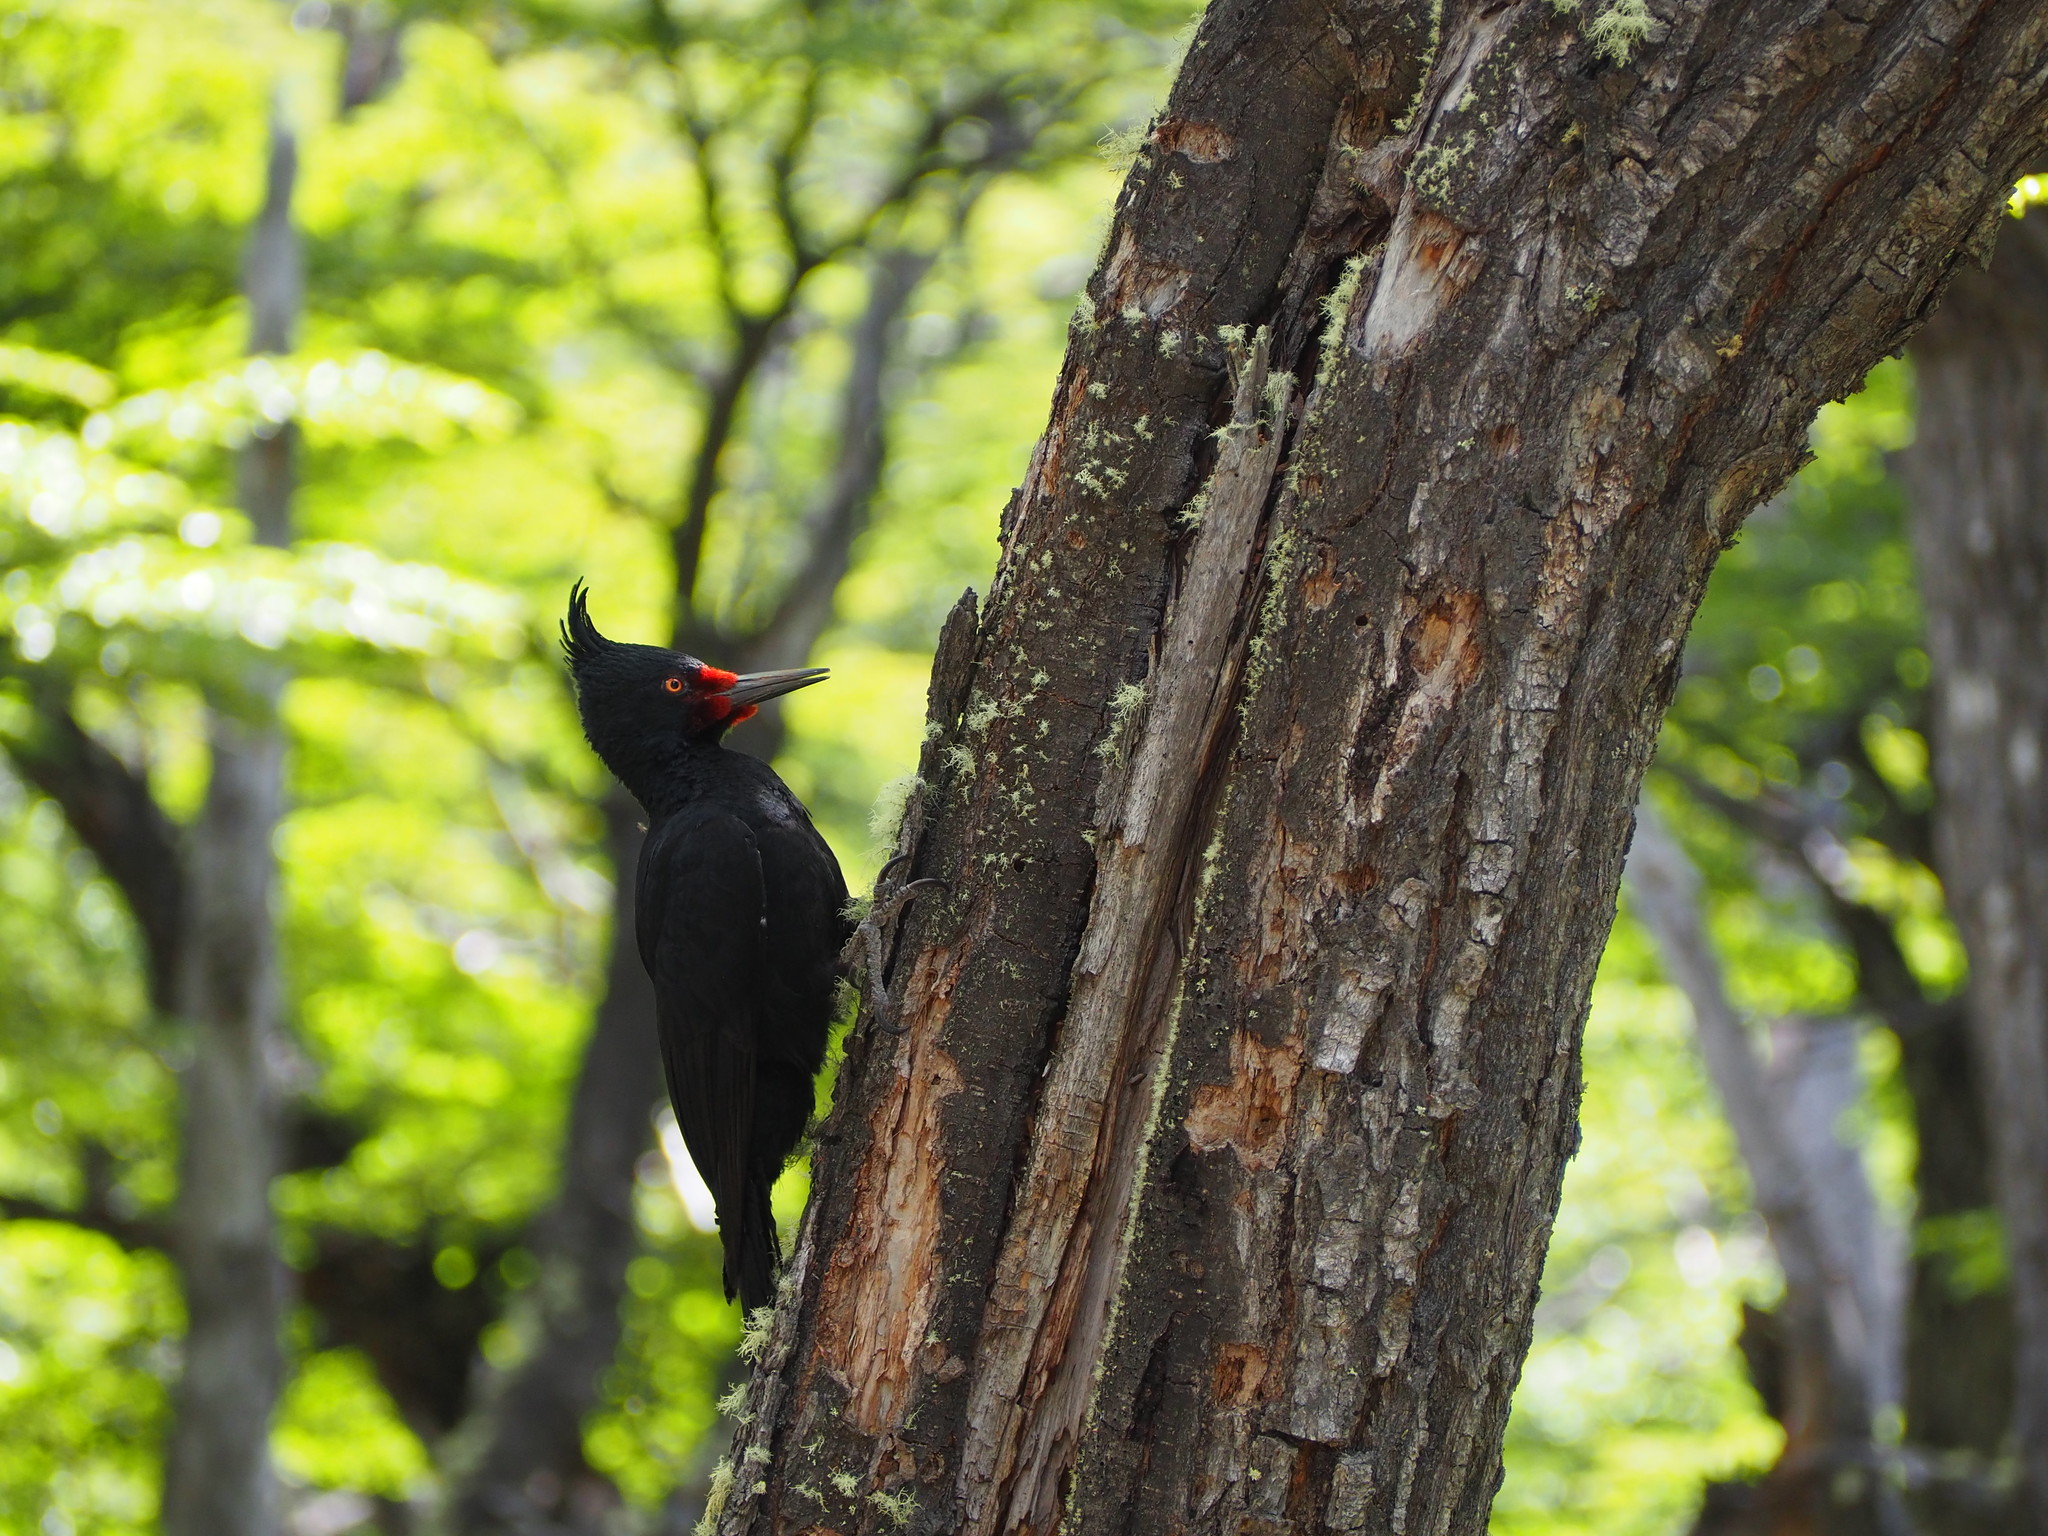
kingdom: Animalia
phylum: Chordata
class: Aves
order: Piciformes
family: Picidae
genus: Campephilus
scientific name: Campephilus magellanicus
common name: Magellanic woodpecker
